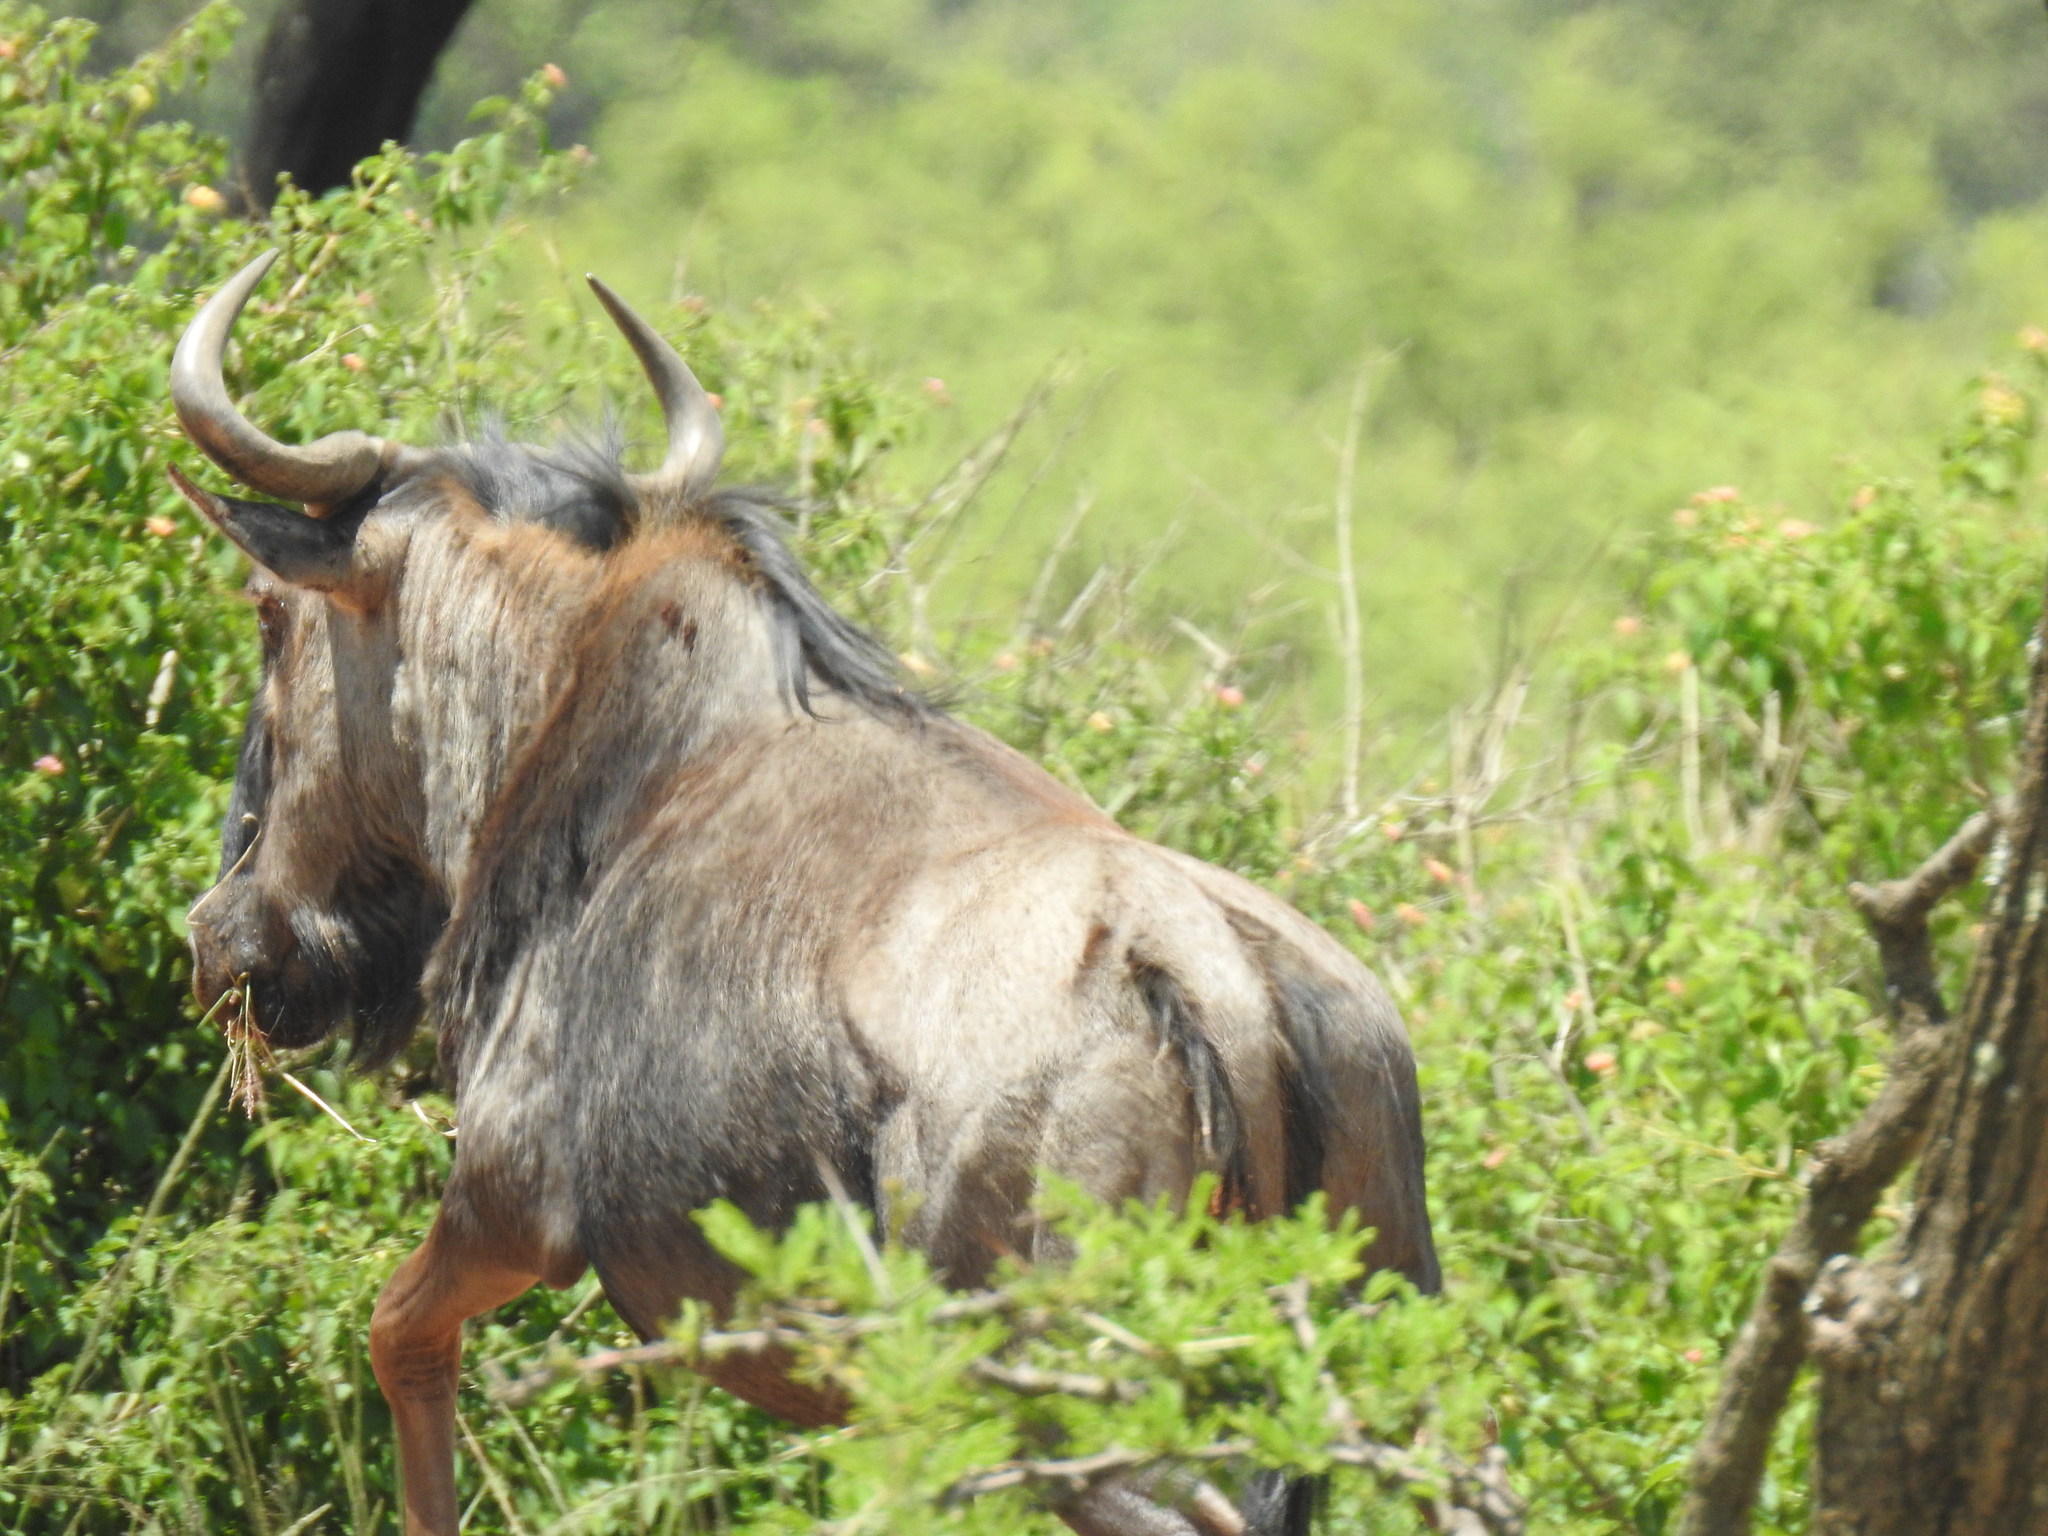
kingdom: Animalia
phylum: Chordata
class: Mammalia
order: Artiodactyla
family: Bovidae
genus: Connochaetes
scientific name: Connochaetes taurinus
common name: Blue wildebeest
